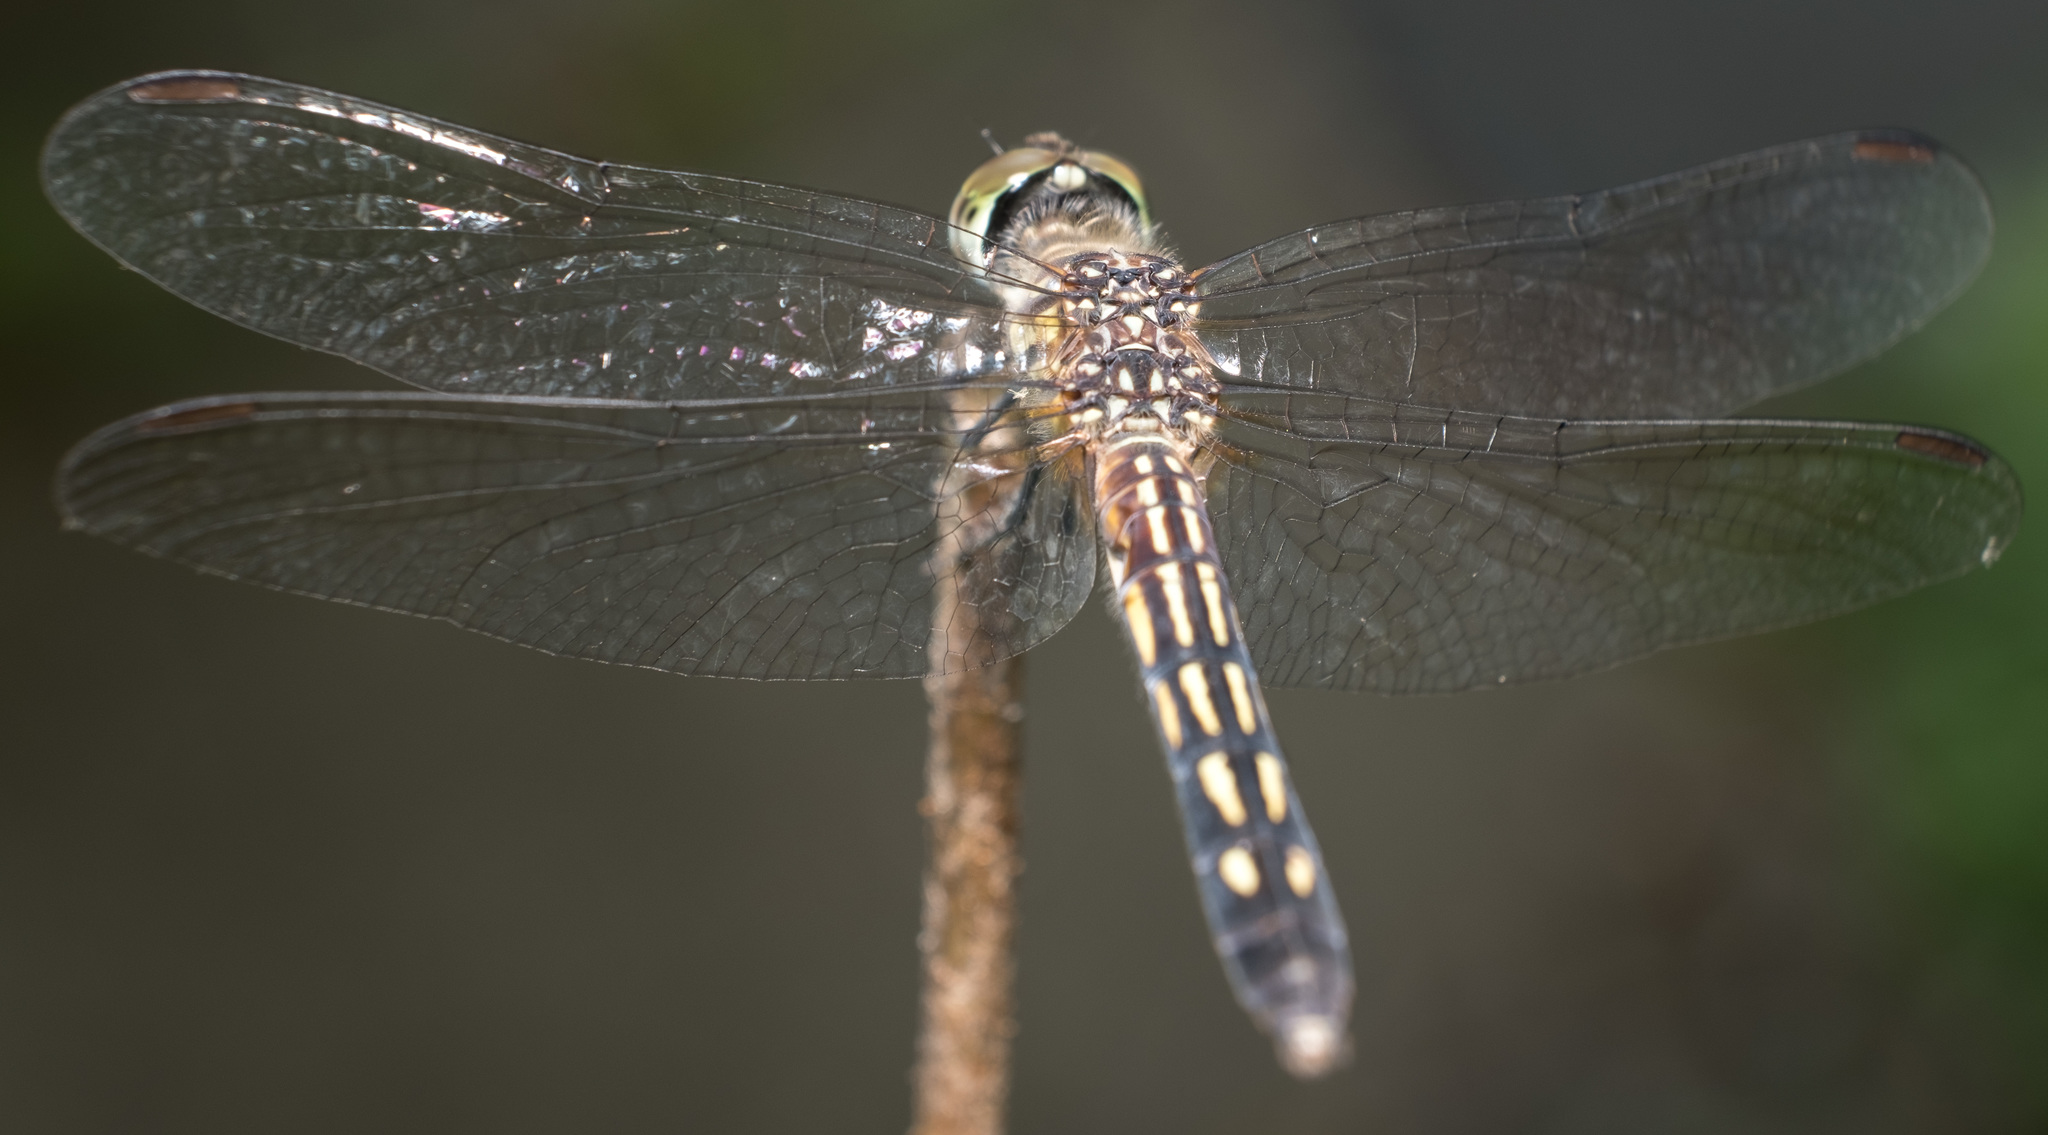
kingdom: Animalia
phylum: Arthropoda
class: Insecta
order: Odonata
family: Libellulidae
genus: Pachydiplax
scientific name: Pachydiplax longipennis
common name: Blue dasher
